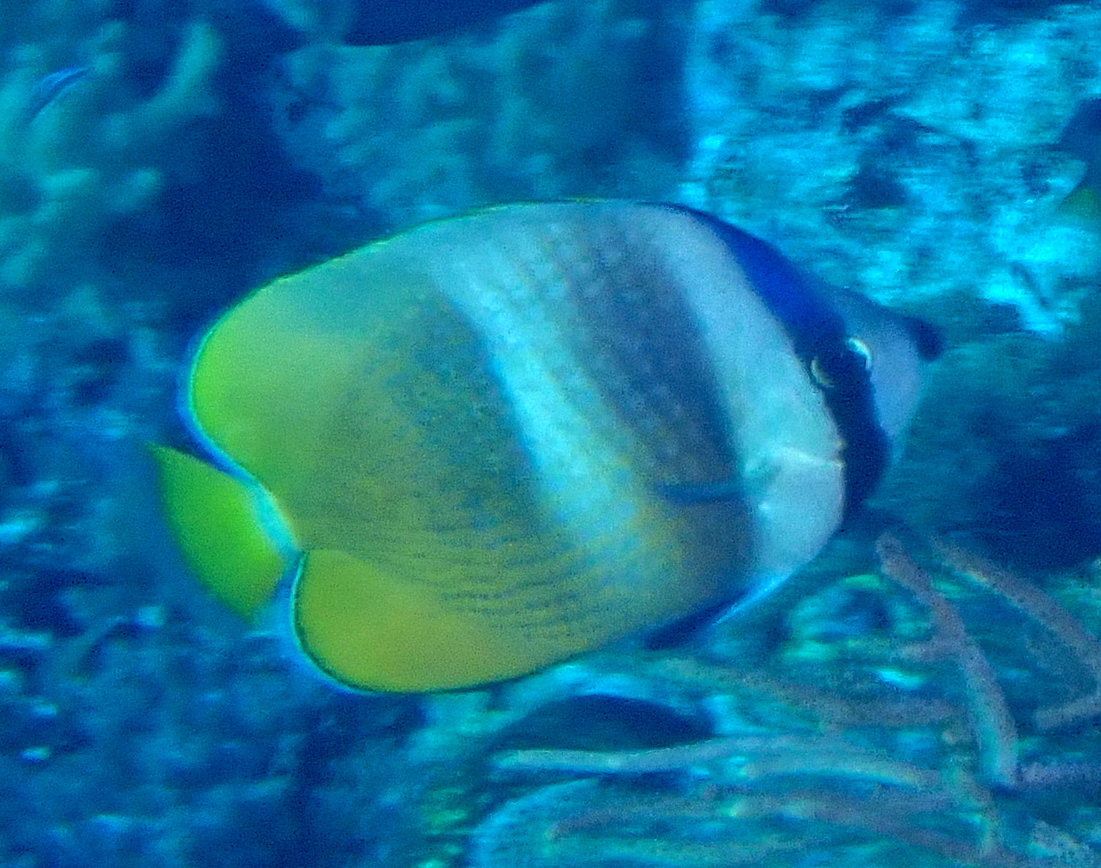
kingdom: Animalia
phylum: Chordata
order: Perciformes
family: Chaetodontidae
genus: Chaetodon
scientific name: Chaetodon kleinii
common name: Klein's butterflyfish
